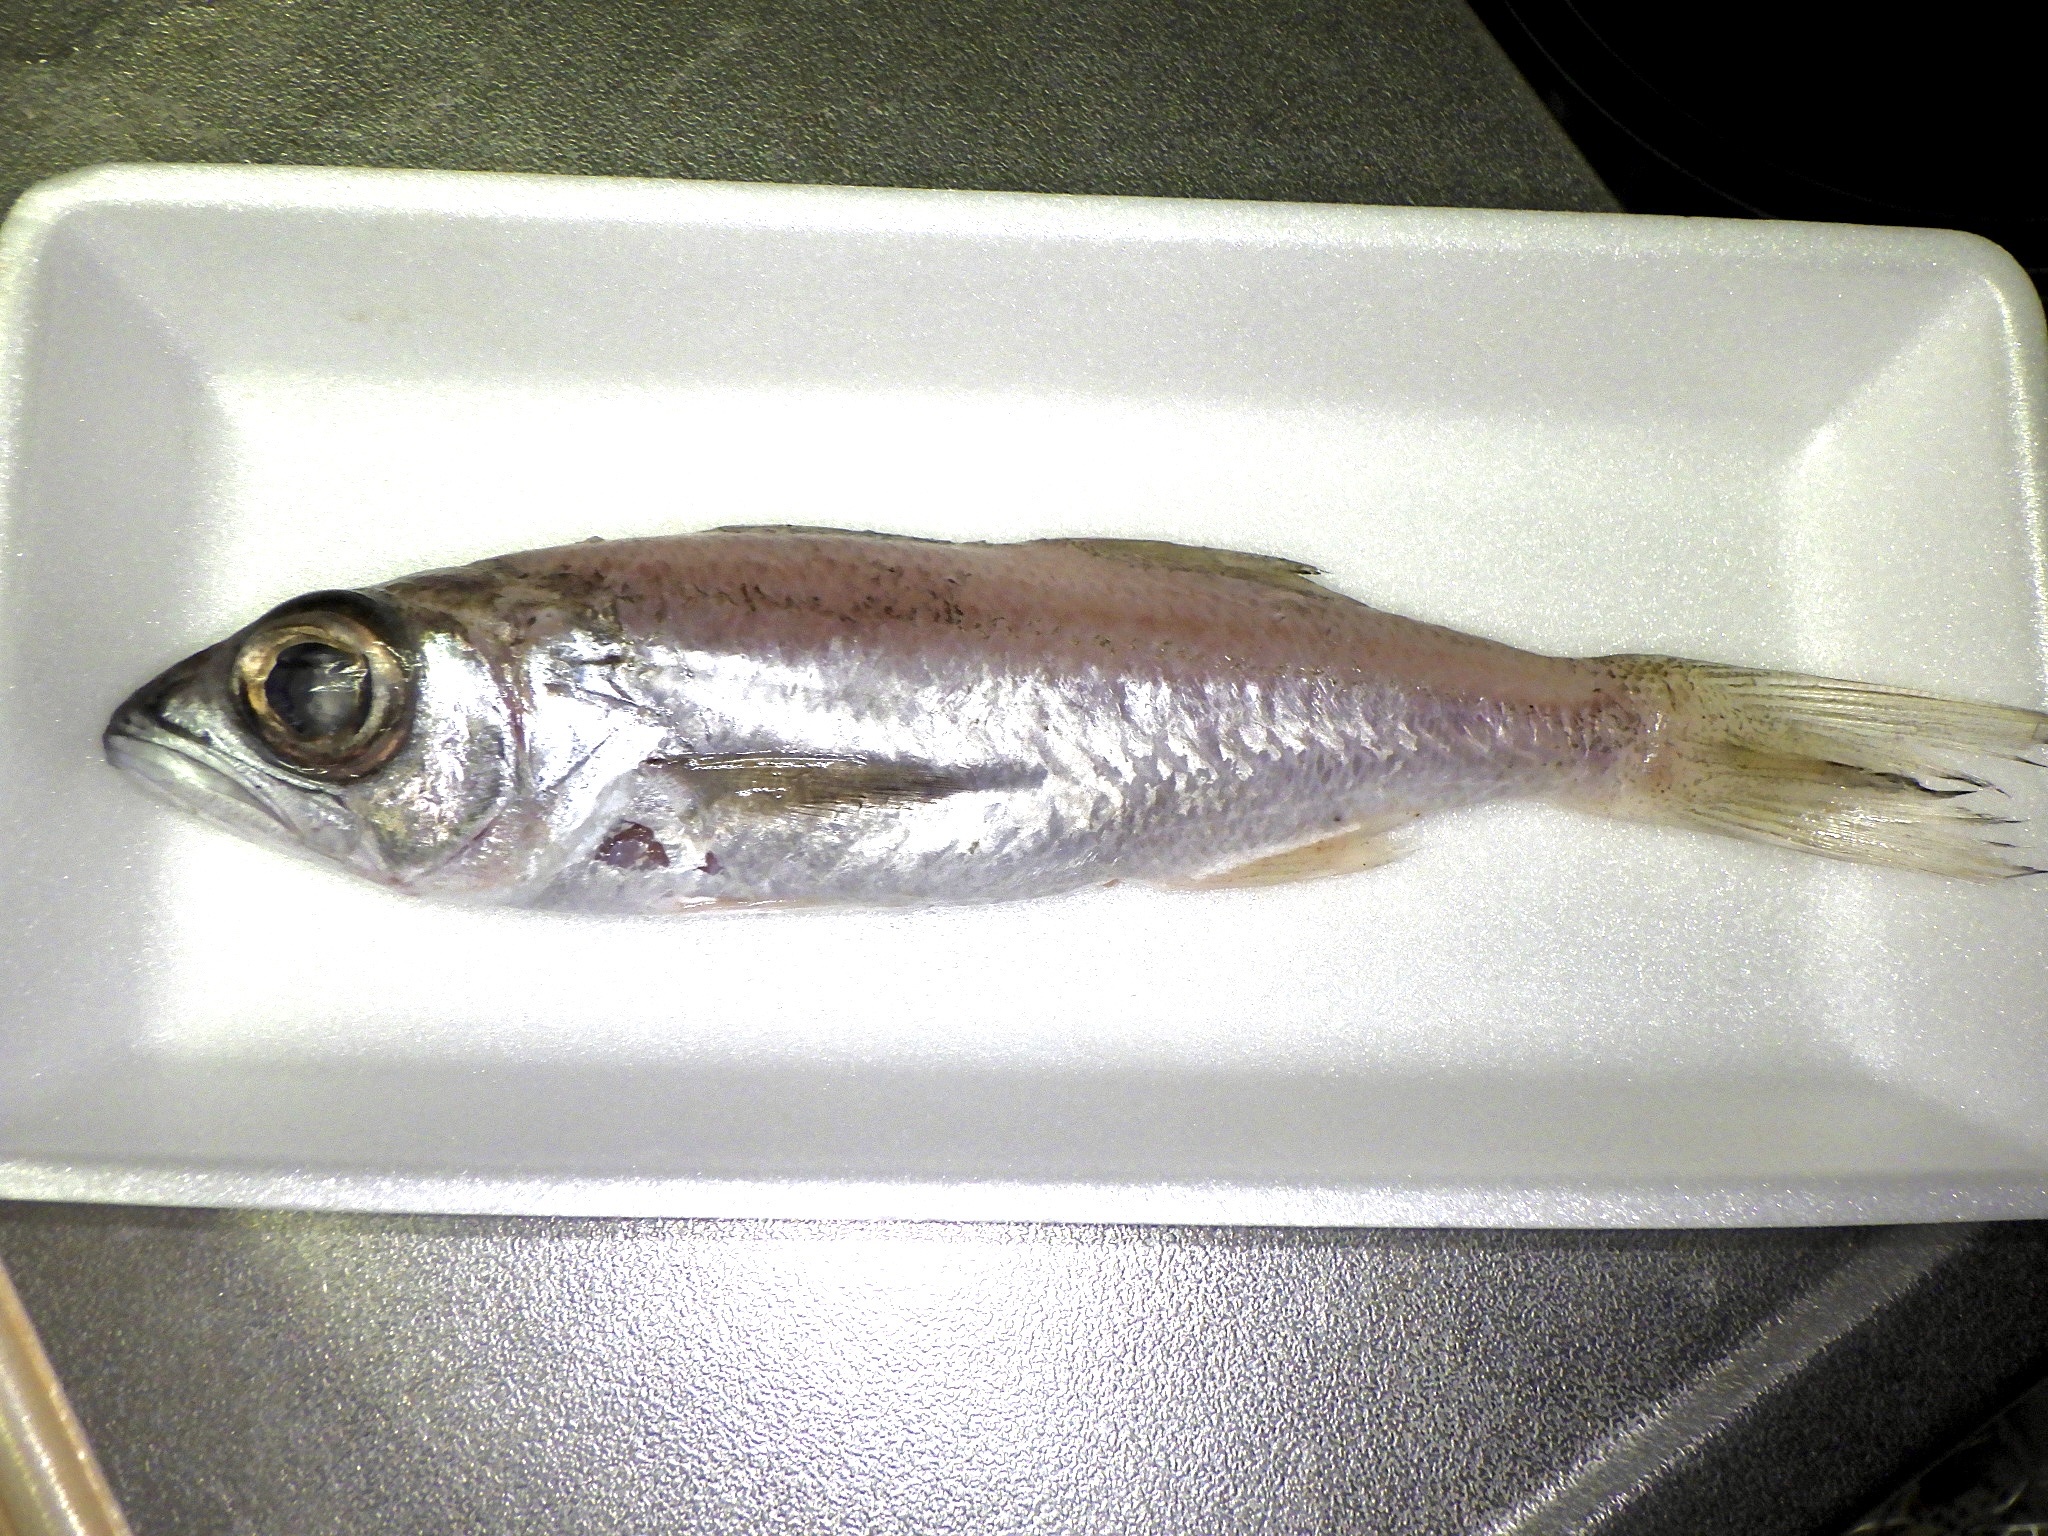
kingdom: Animalia
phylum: Chordata
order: Perciformes
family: Scombropidae
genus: Scombrops
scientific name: Scombrops gilberti
